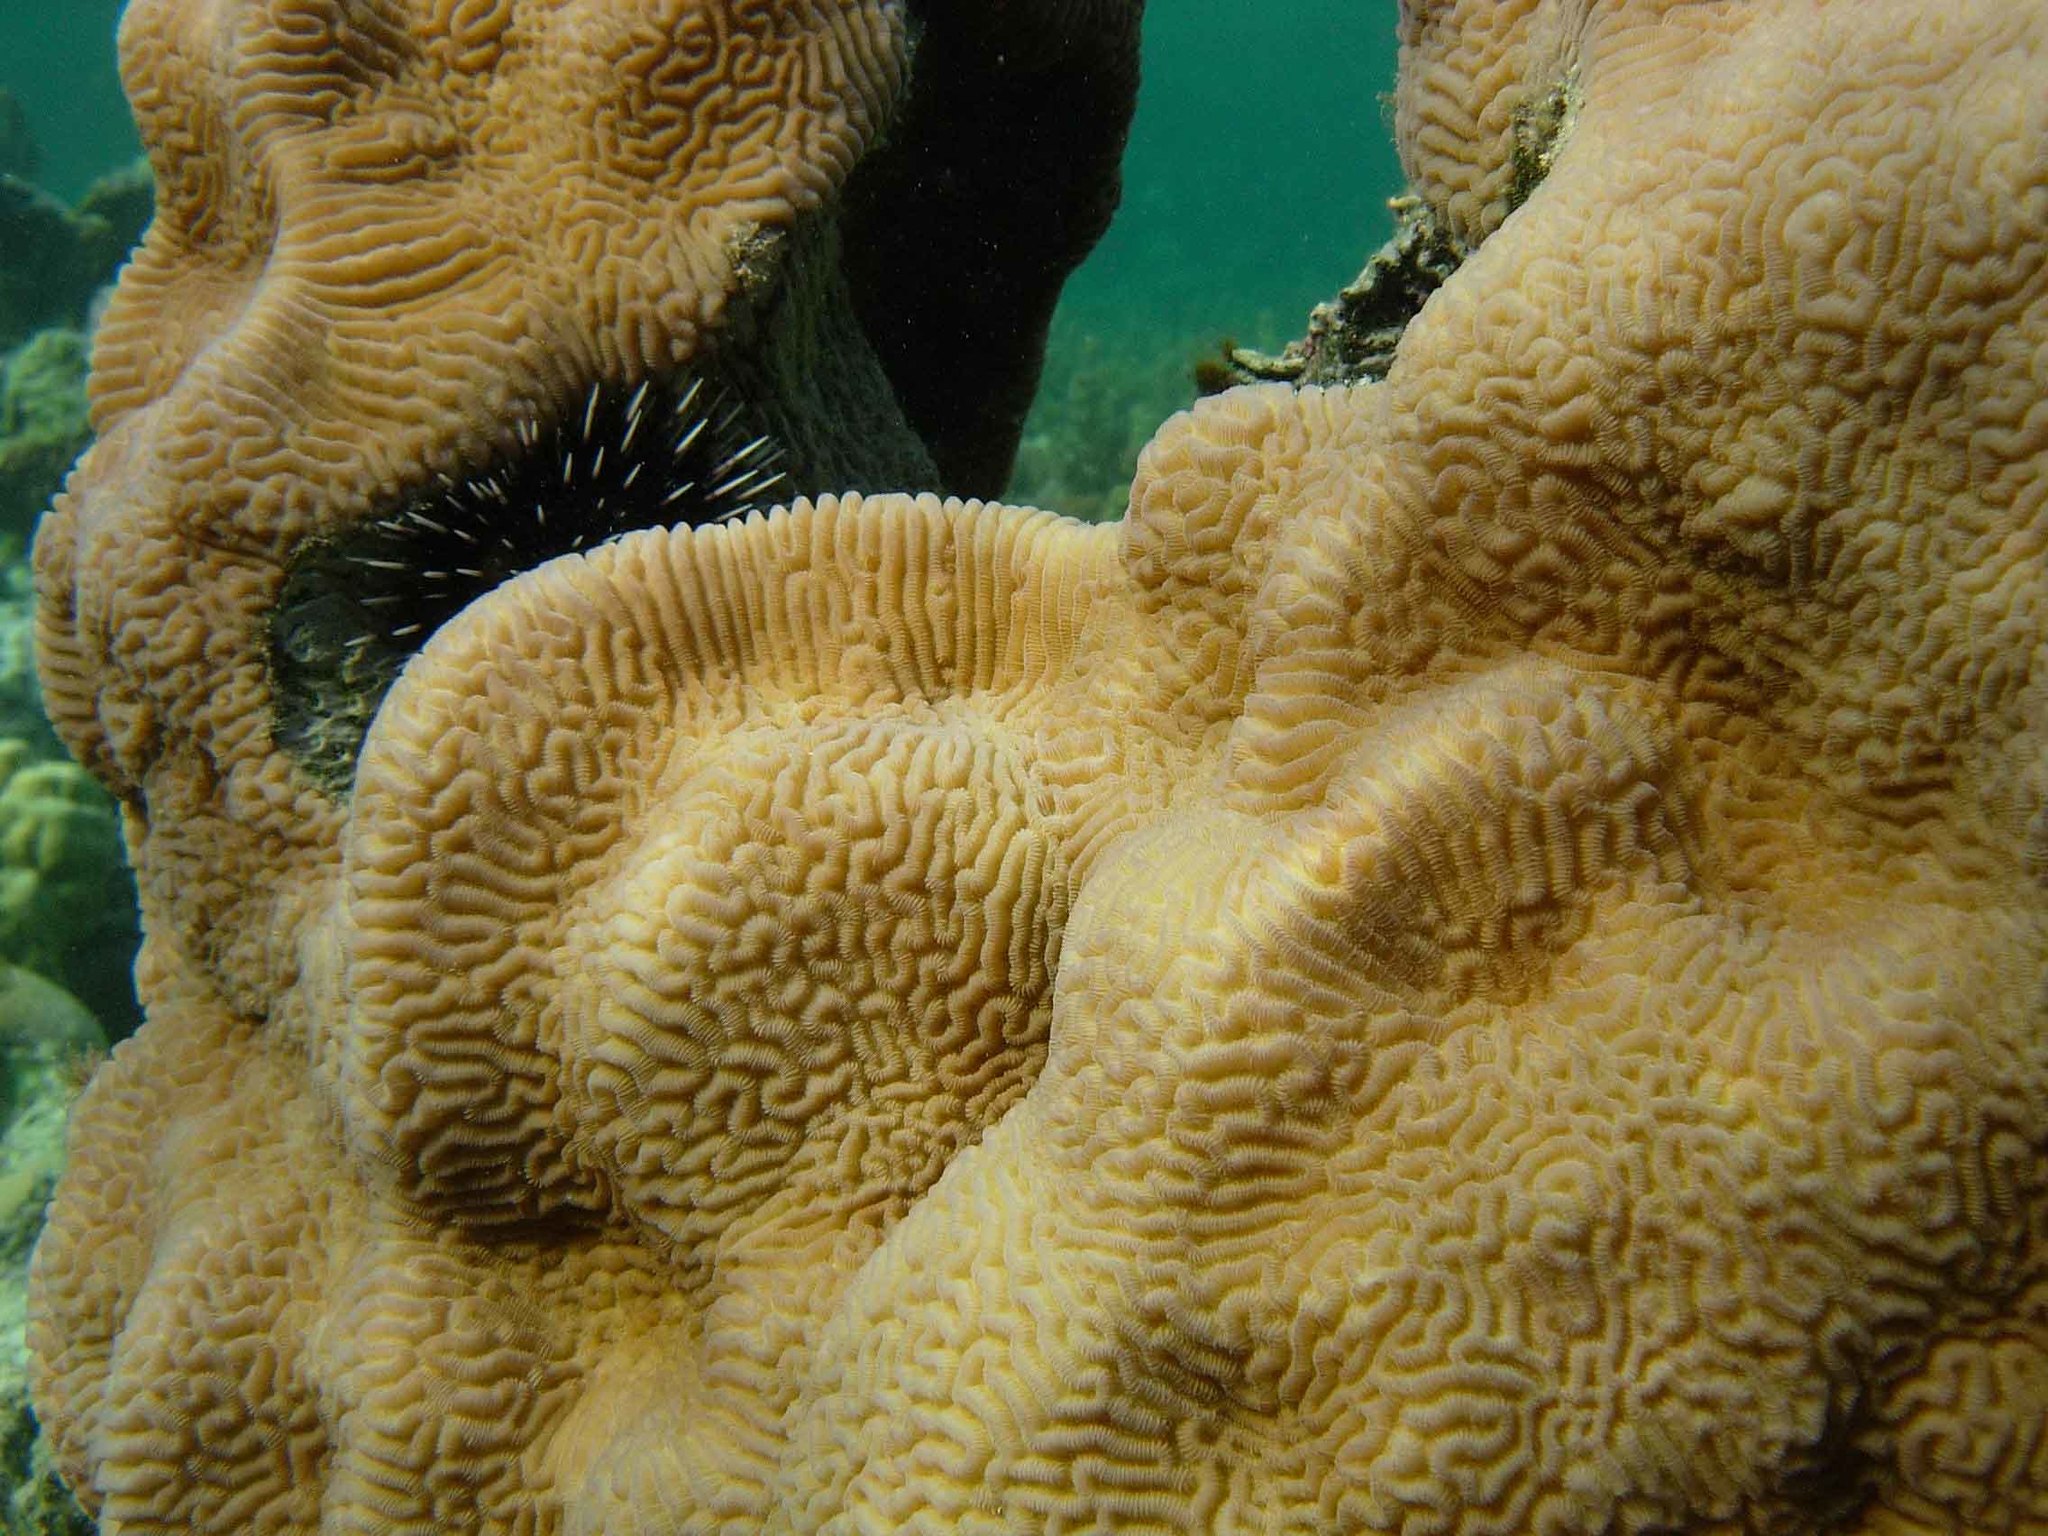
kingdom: Animalia
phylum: Cnidaria
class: Anthozoa
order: Scleractinia
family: Merulinidae
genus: Leptoria
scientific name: Leptoria phrygia
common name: Least valley coral
